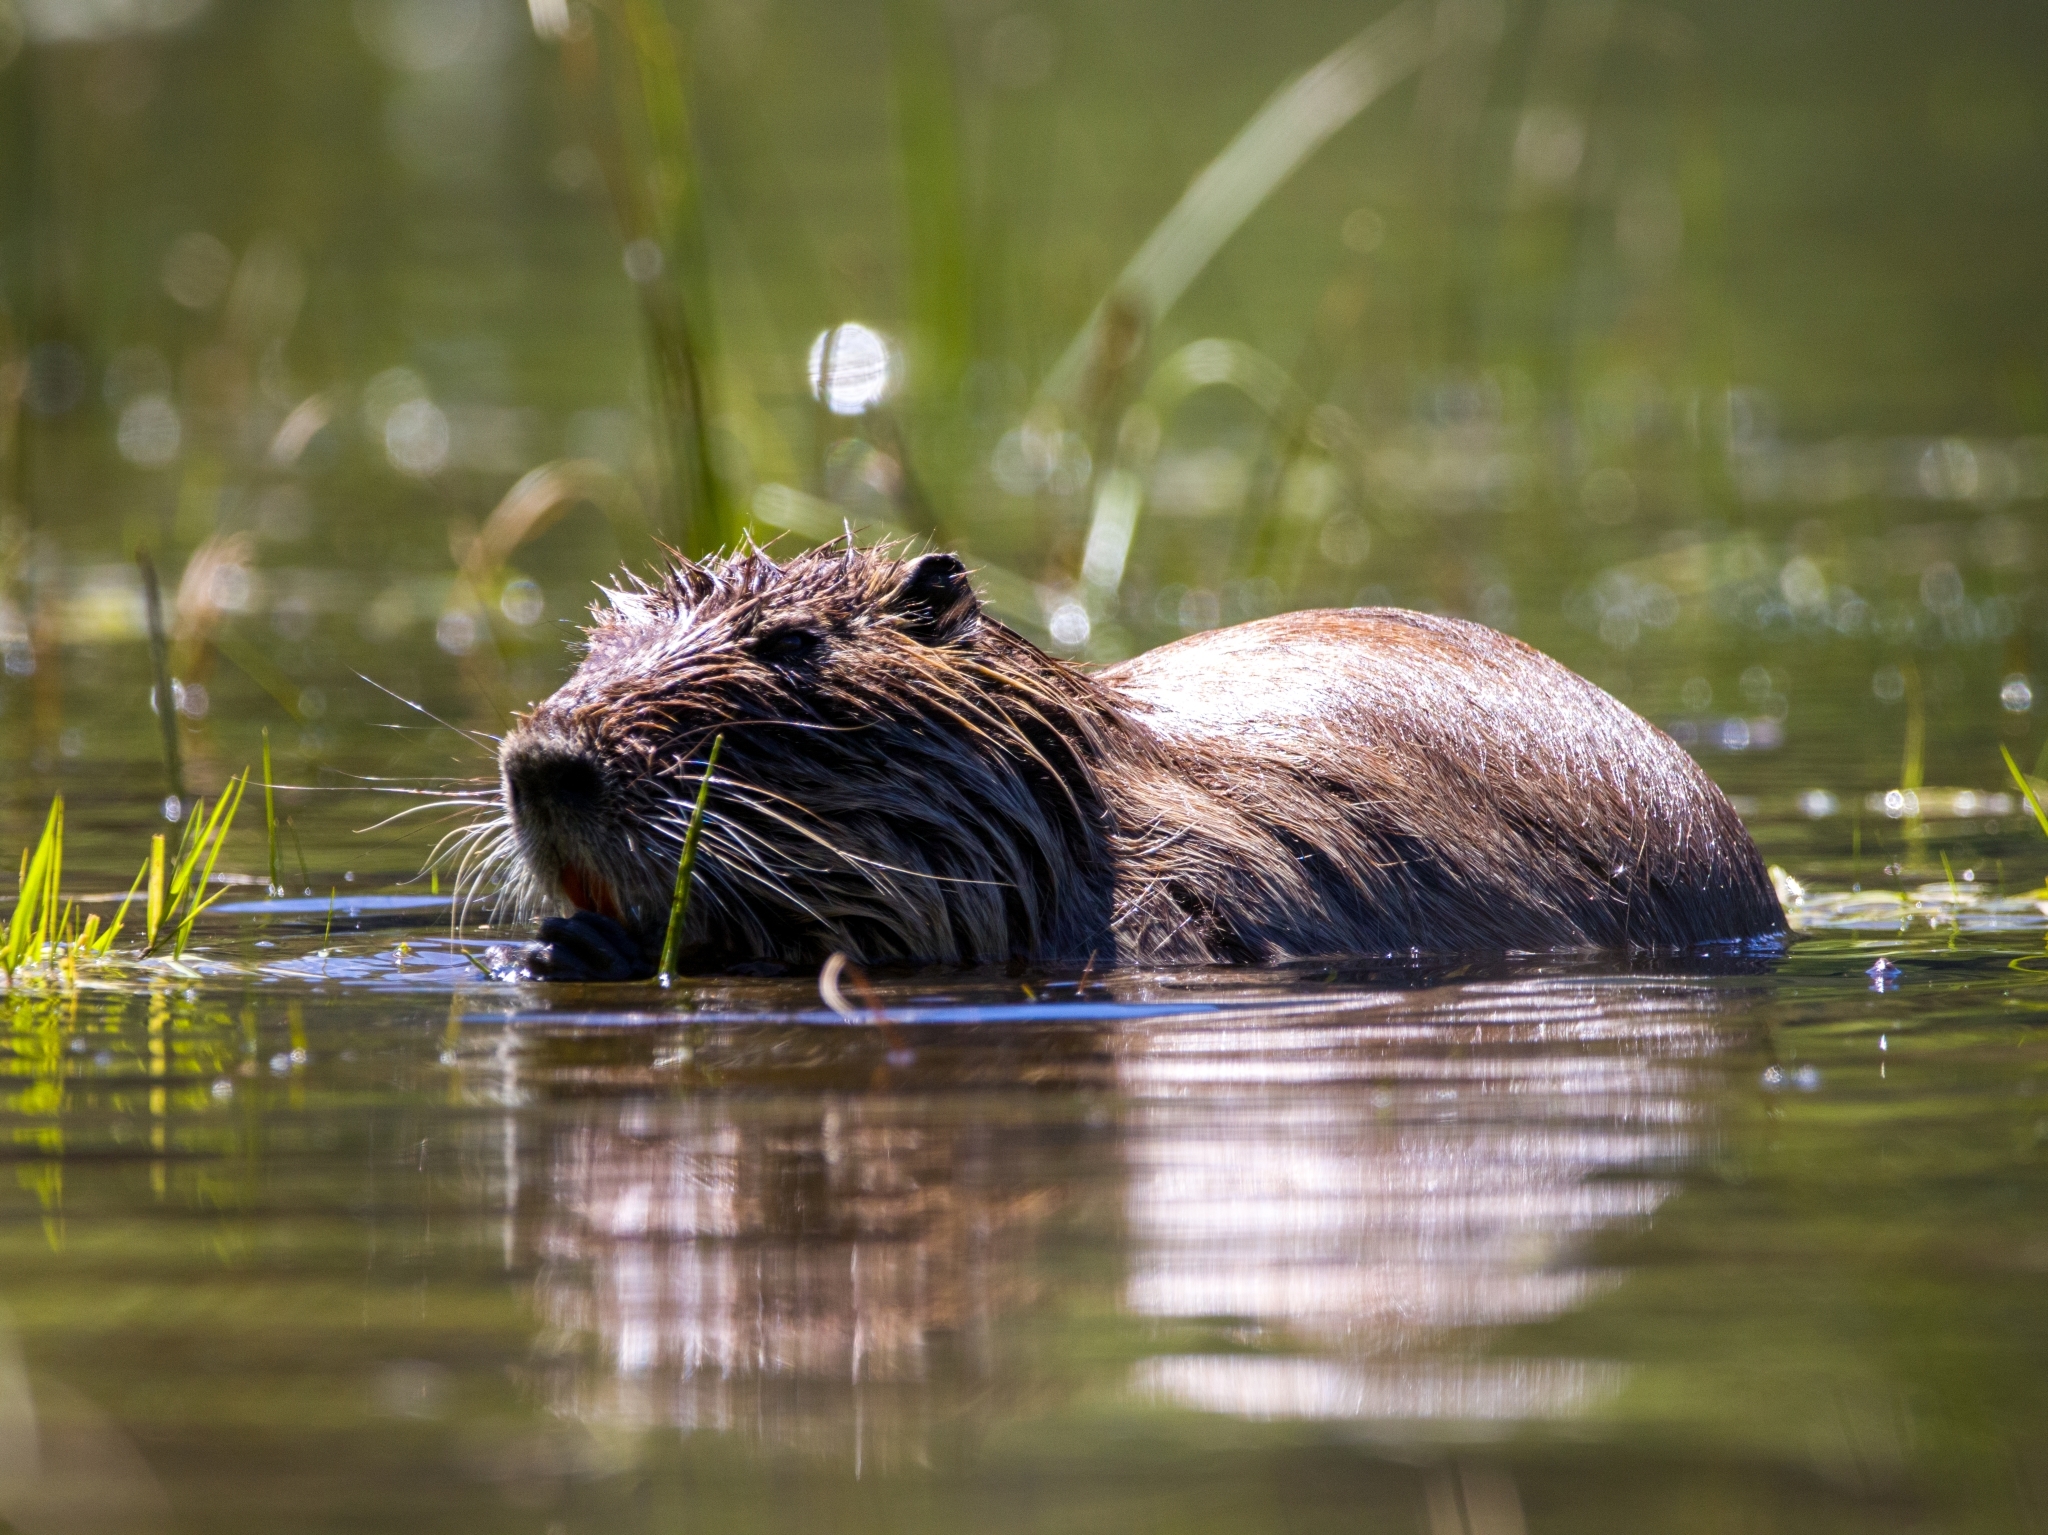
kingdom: Animalia
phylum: Chordata
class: Mammalia
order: Rodentia
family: Myocastoridae
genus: Myocastor
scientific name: Myocastor coypus
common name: Coypu
